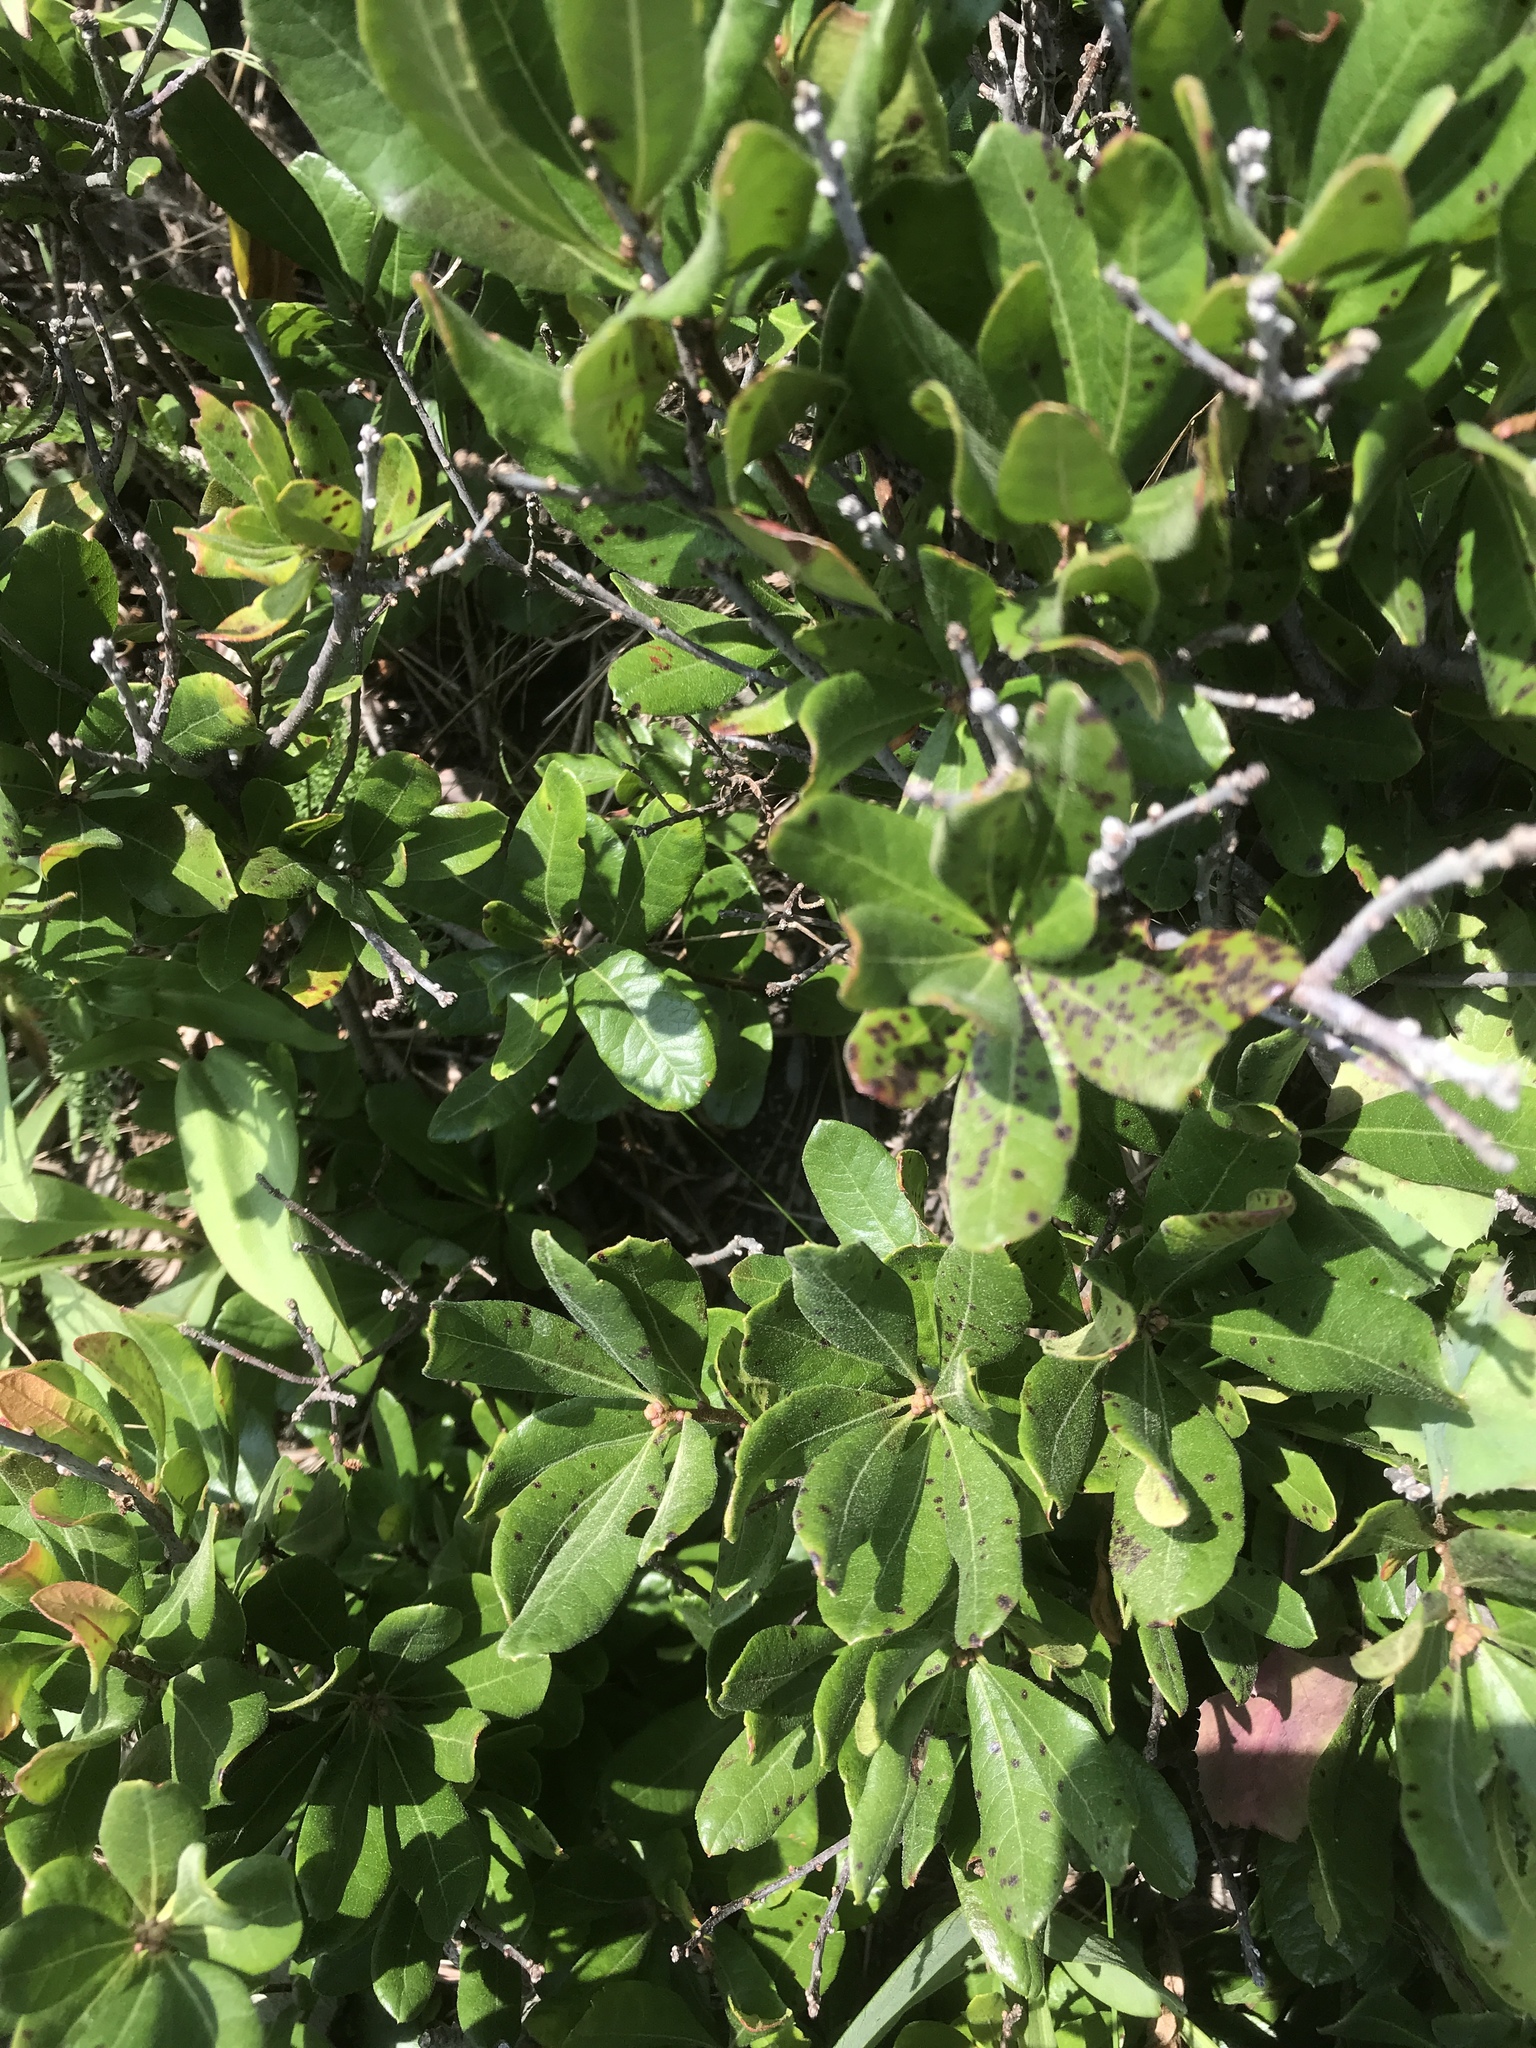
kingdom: Plantae
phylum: Tracheophyta
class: Magnoliopsida
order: Fagales
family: Myricaceae
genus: Morella
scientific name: Morella pensylvanica
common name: Northern bayberry
